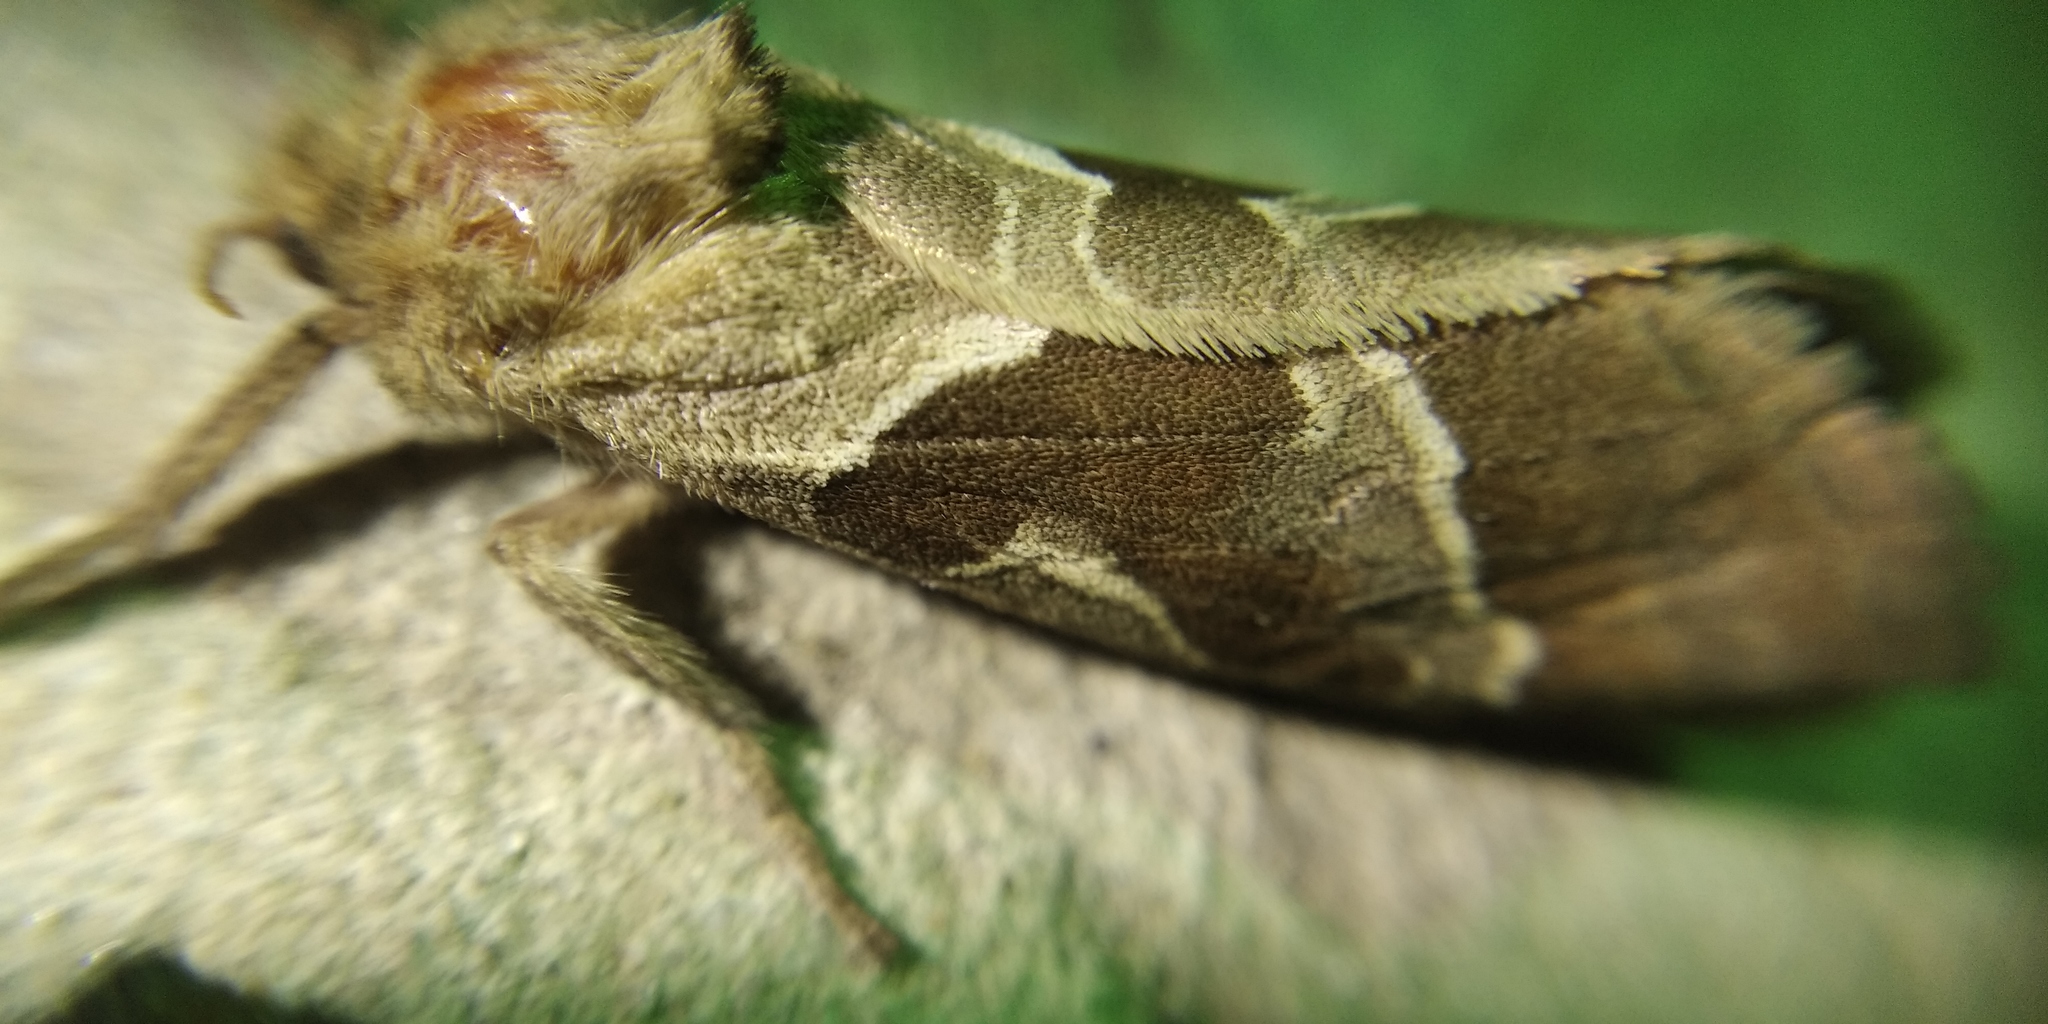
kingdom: Animalia
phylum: Arthropoda
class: Insecta
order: Lepidoptera
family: Hepialidae
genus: Triodia
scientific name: Triodia sylvina
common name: Orange swift
